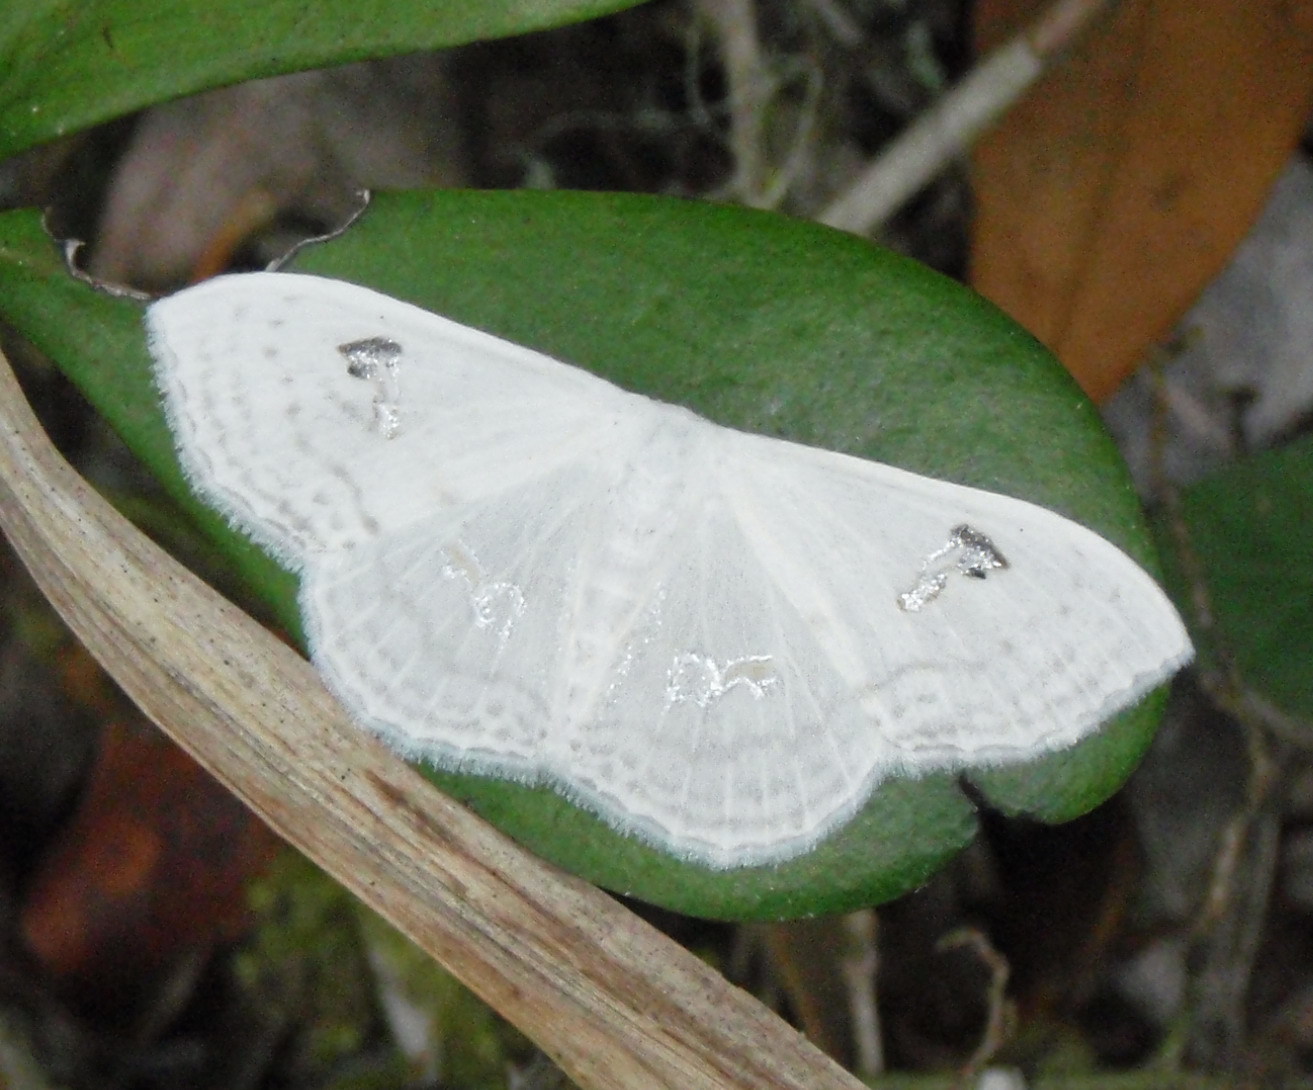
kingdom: Animalia
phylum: Arthropoda
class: Insecta
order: Lepidoptera
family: Geometridae
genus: Problepsis
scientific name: Problepsis aegretta
